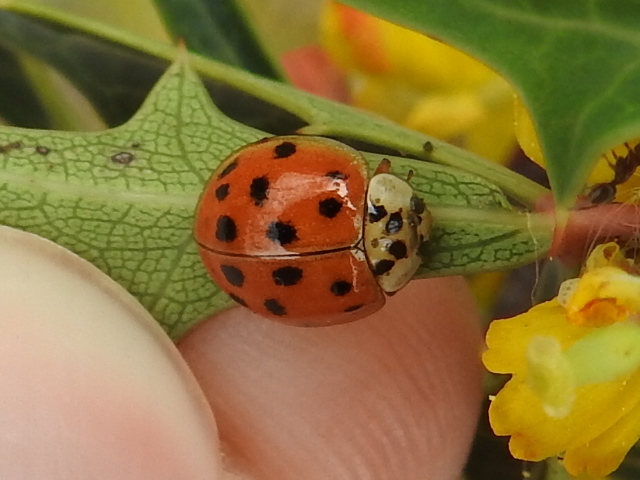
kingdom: Animalia
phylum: Arthropoda
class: Insecta
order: Coleoptera
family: Coccinellidae
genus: Harmonia
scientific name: Harmonia axyridis
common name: Harlequin ladybird
